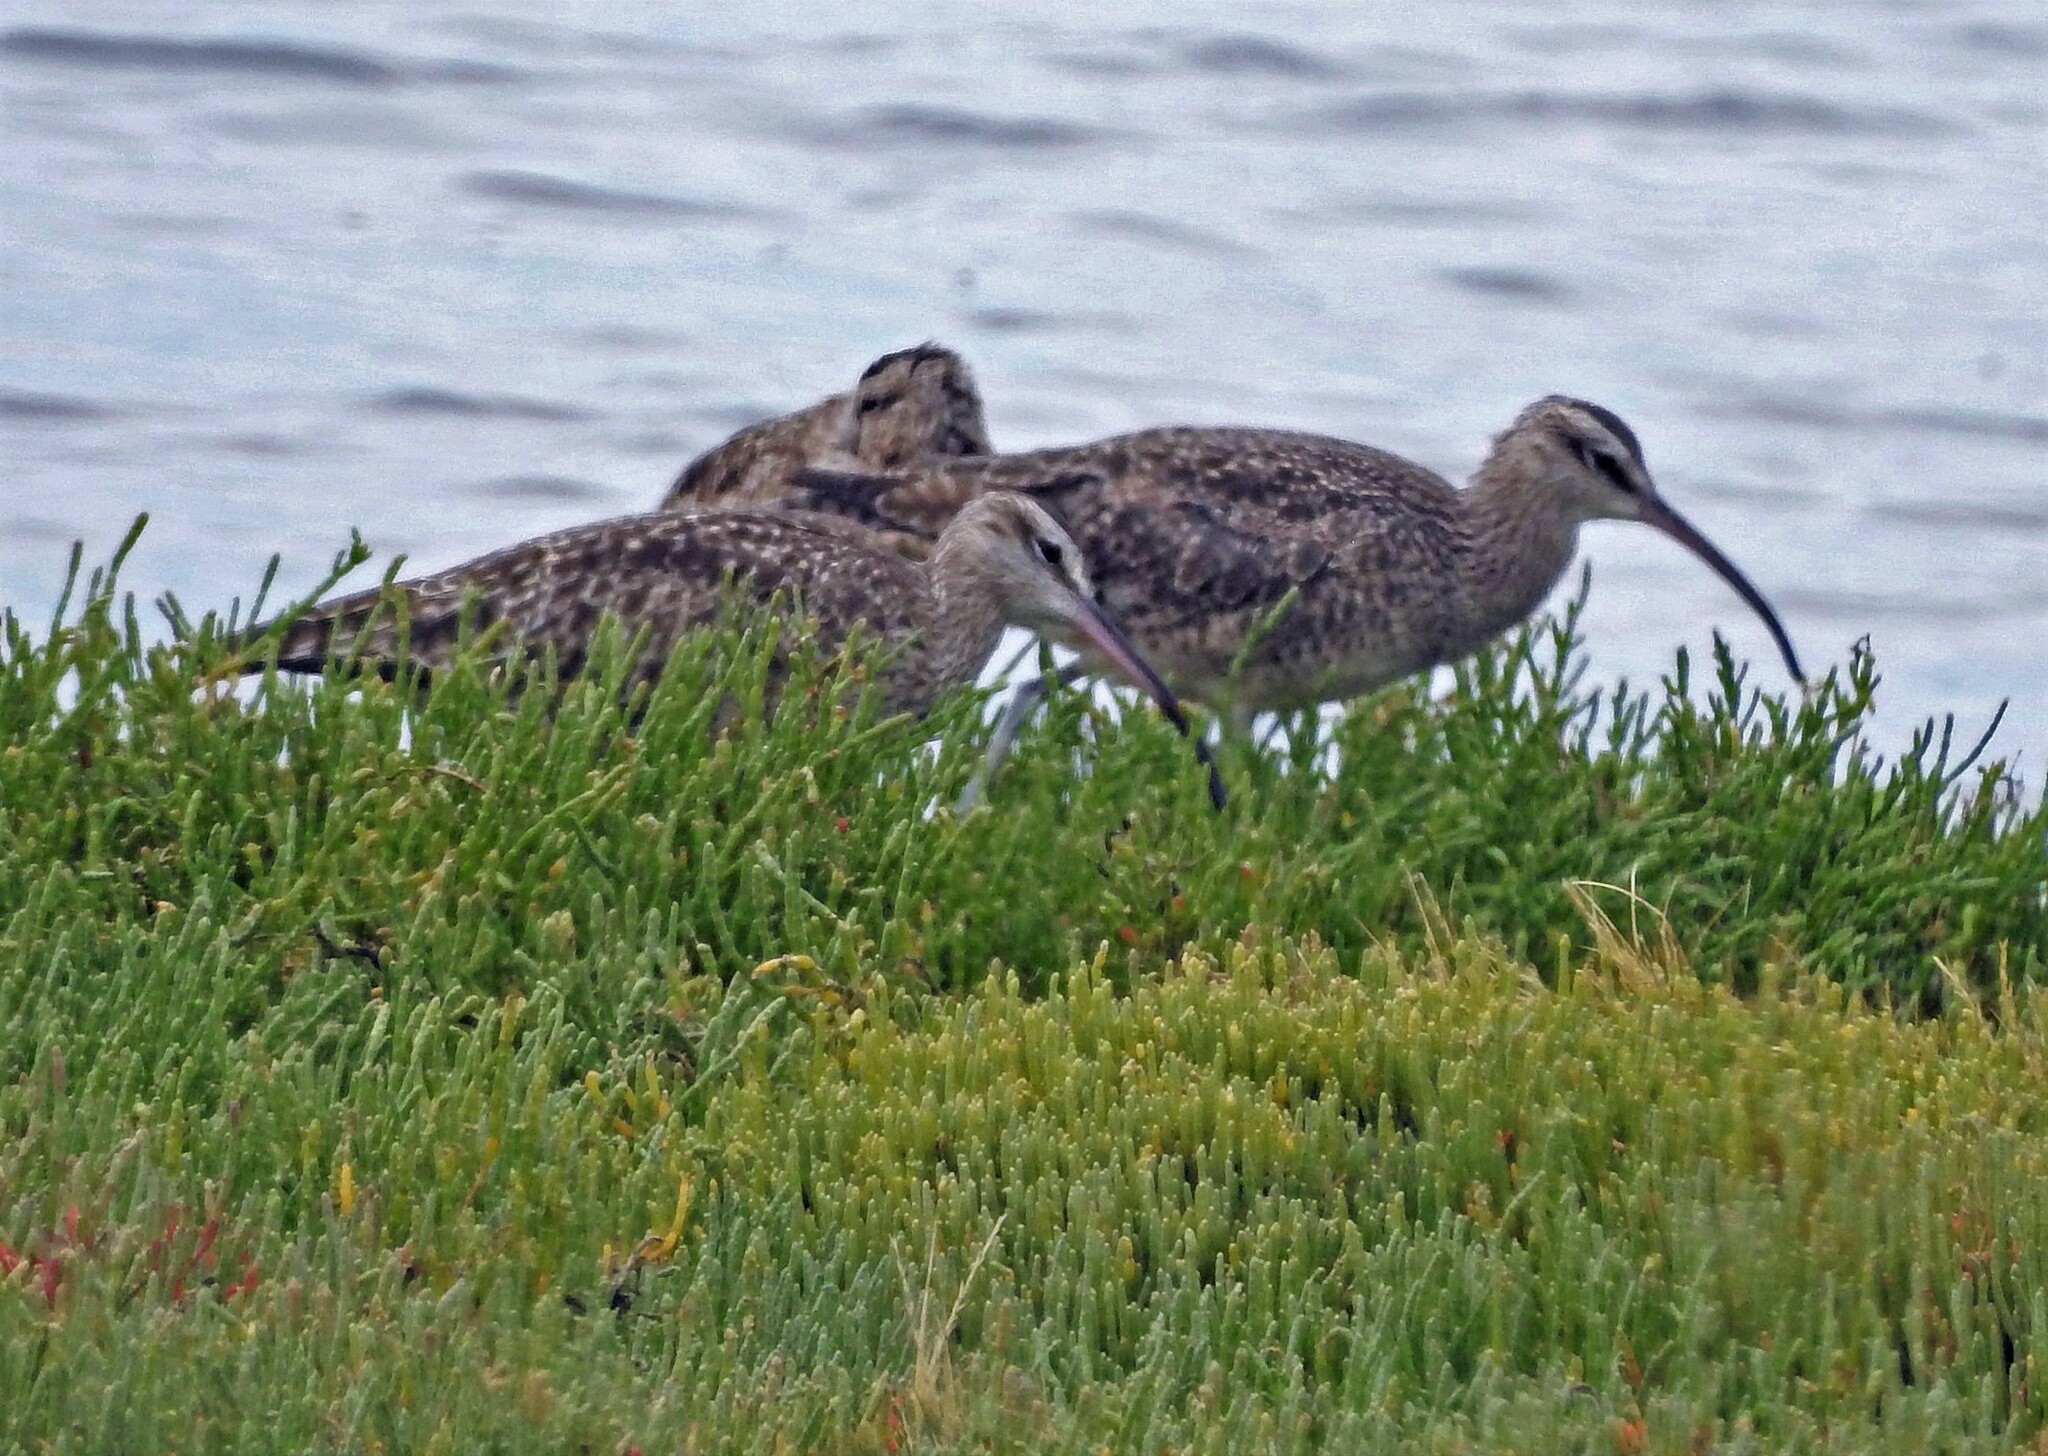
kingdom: Animalia
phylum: Chordata
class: Aves
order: Charadriiformes
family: Scolopacidae
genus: Numenius
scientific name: Numenius phaeopus
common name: Whimbrel
